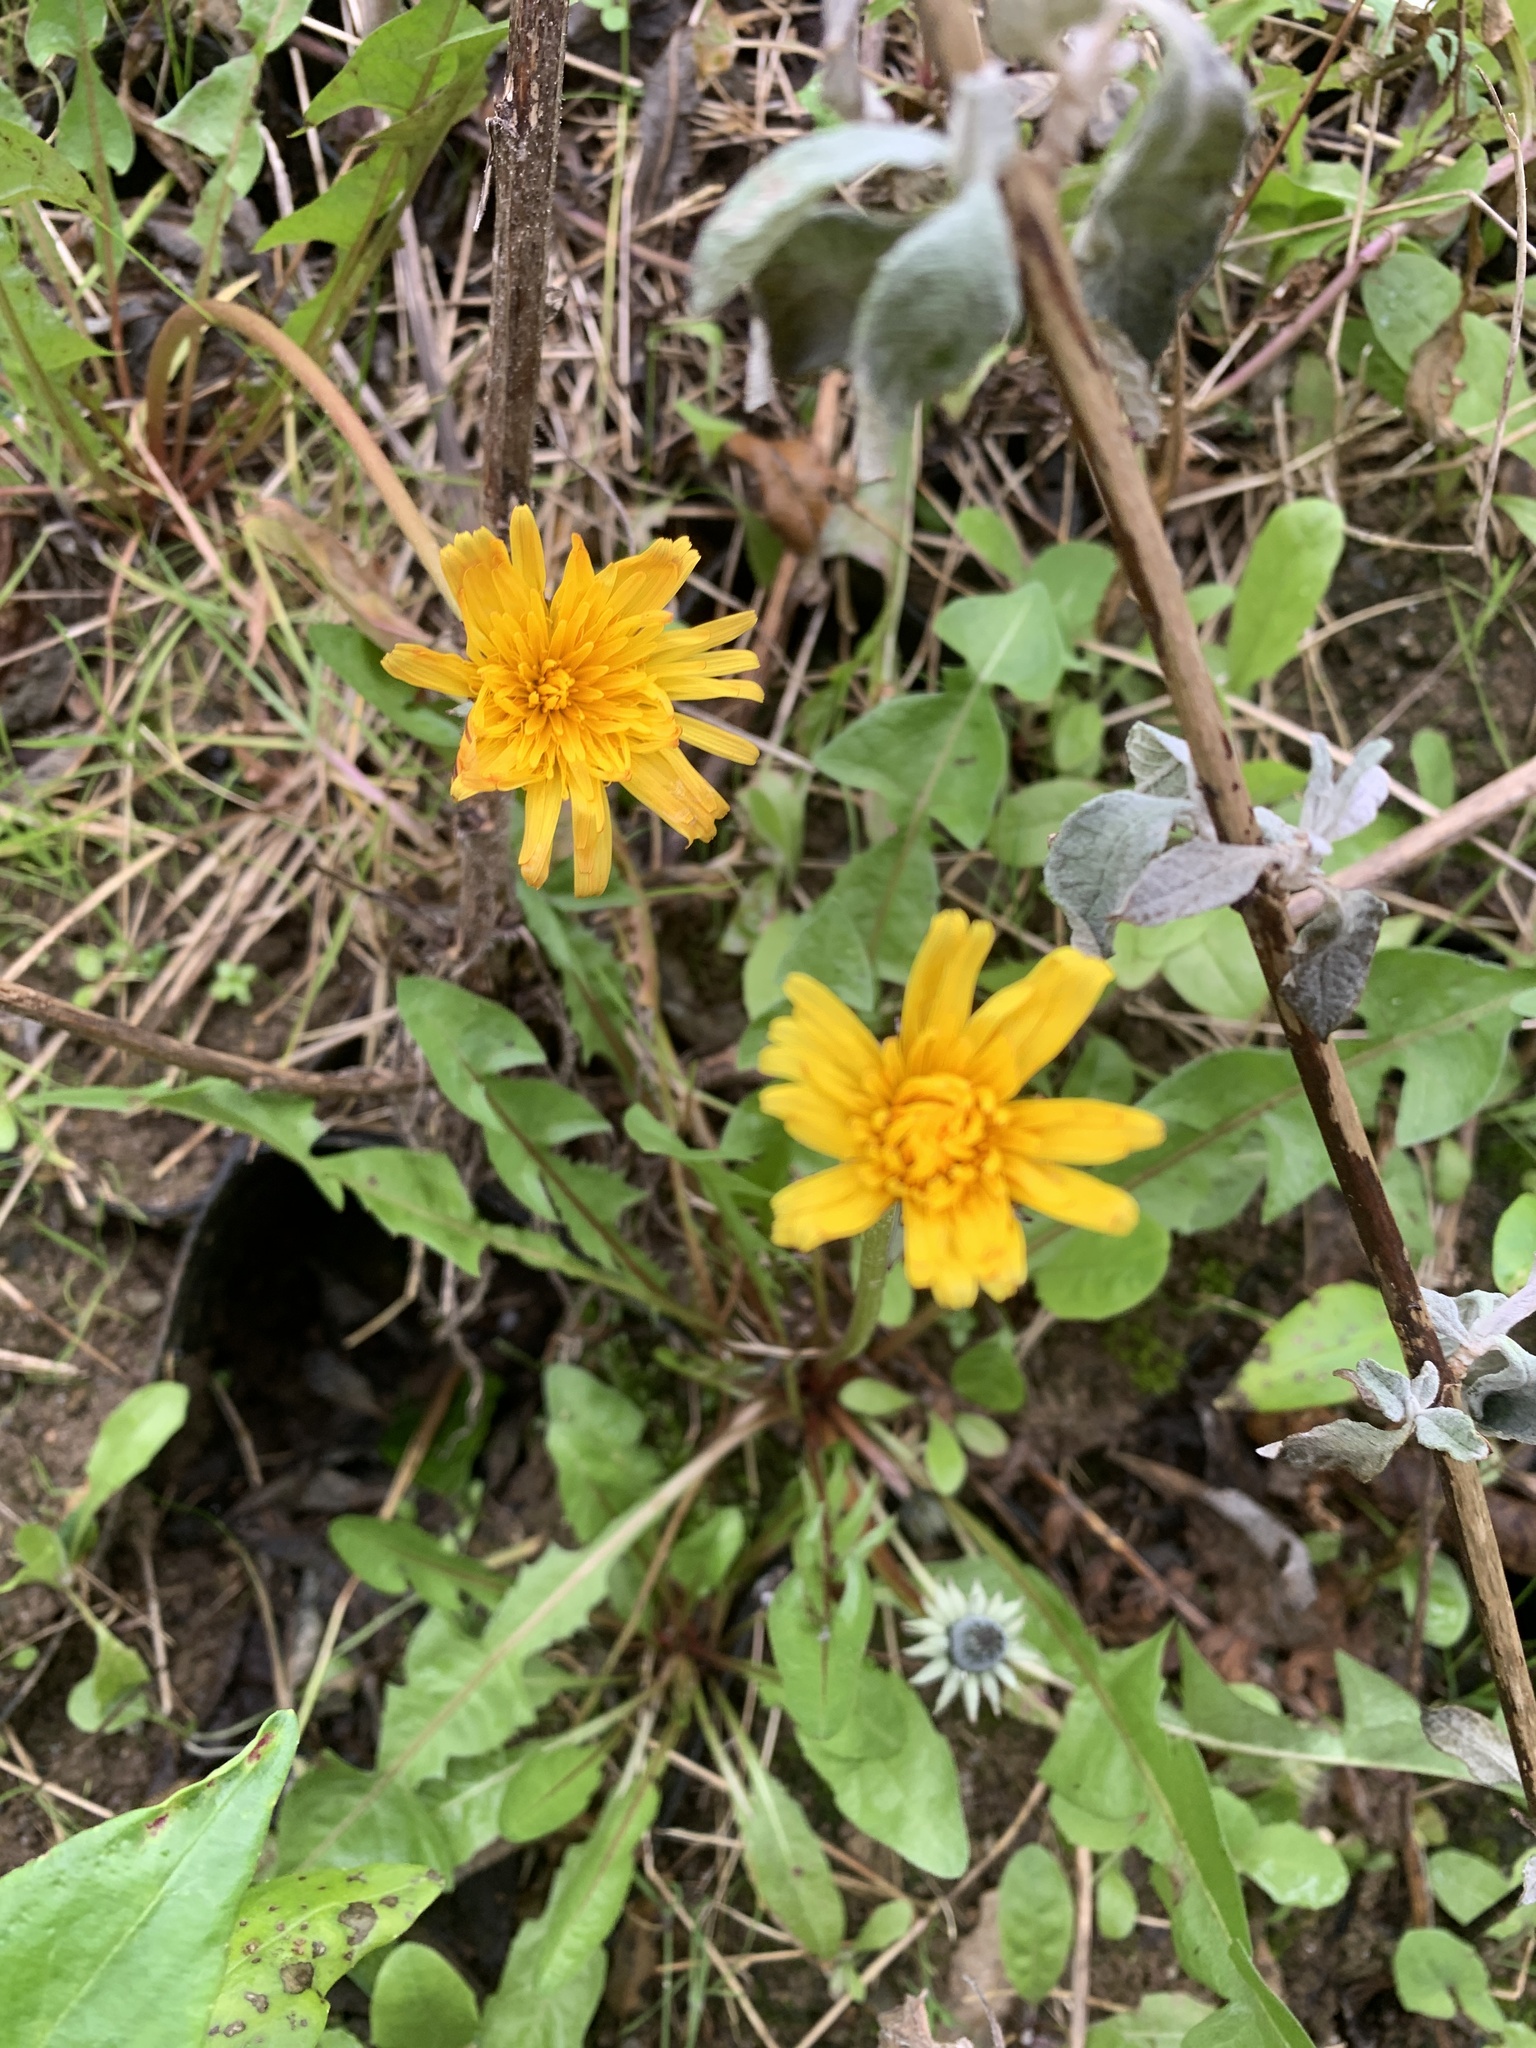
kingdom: Plantae
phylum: Tracheophyta
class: Magnoliopsida
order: Asterales
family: Asteraceae
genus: Taraxacum
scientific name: Taraxacum officinale
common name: Common dandelion
